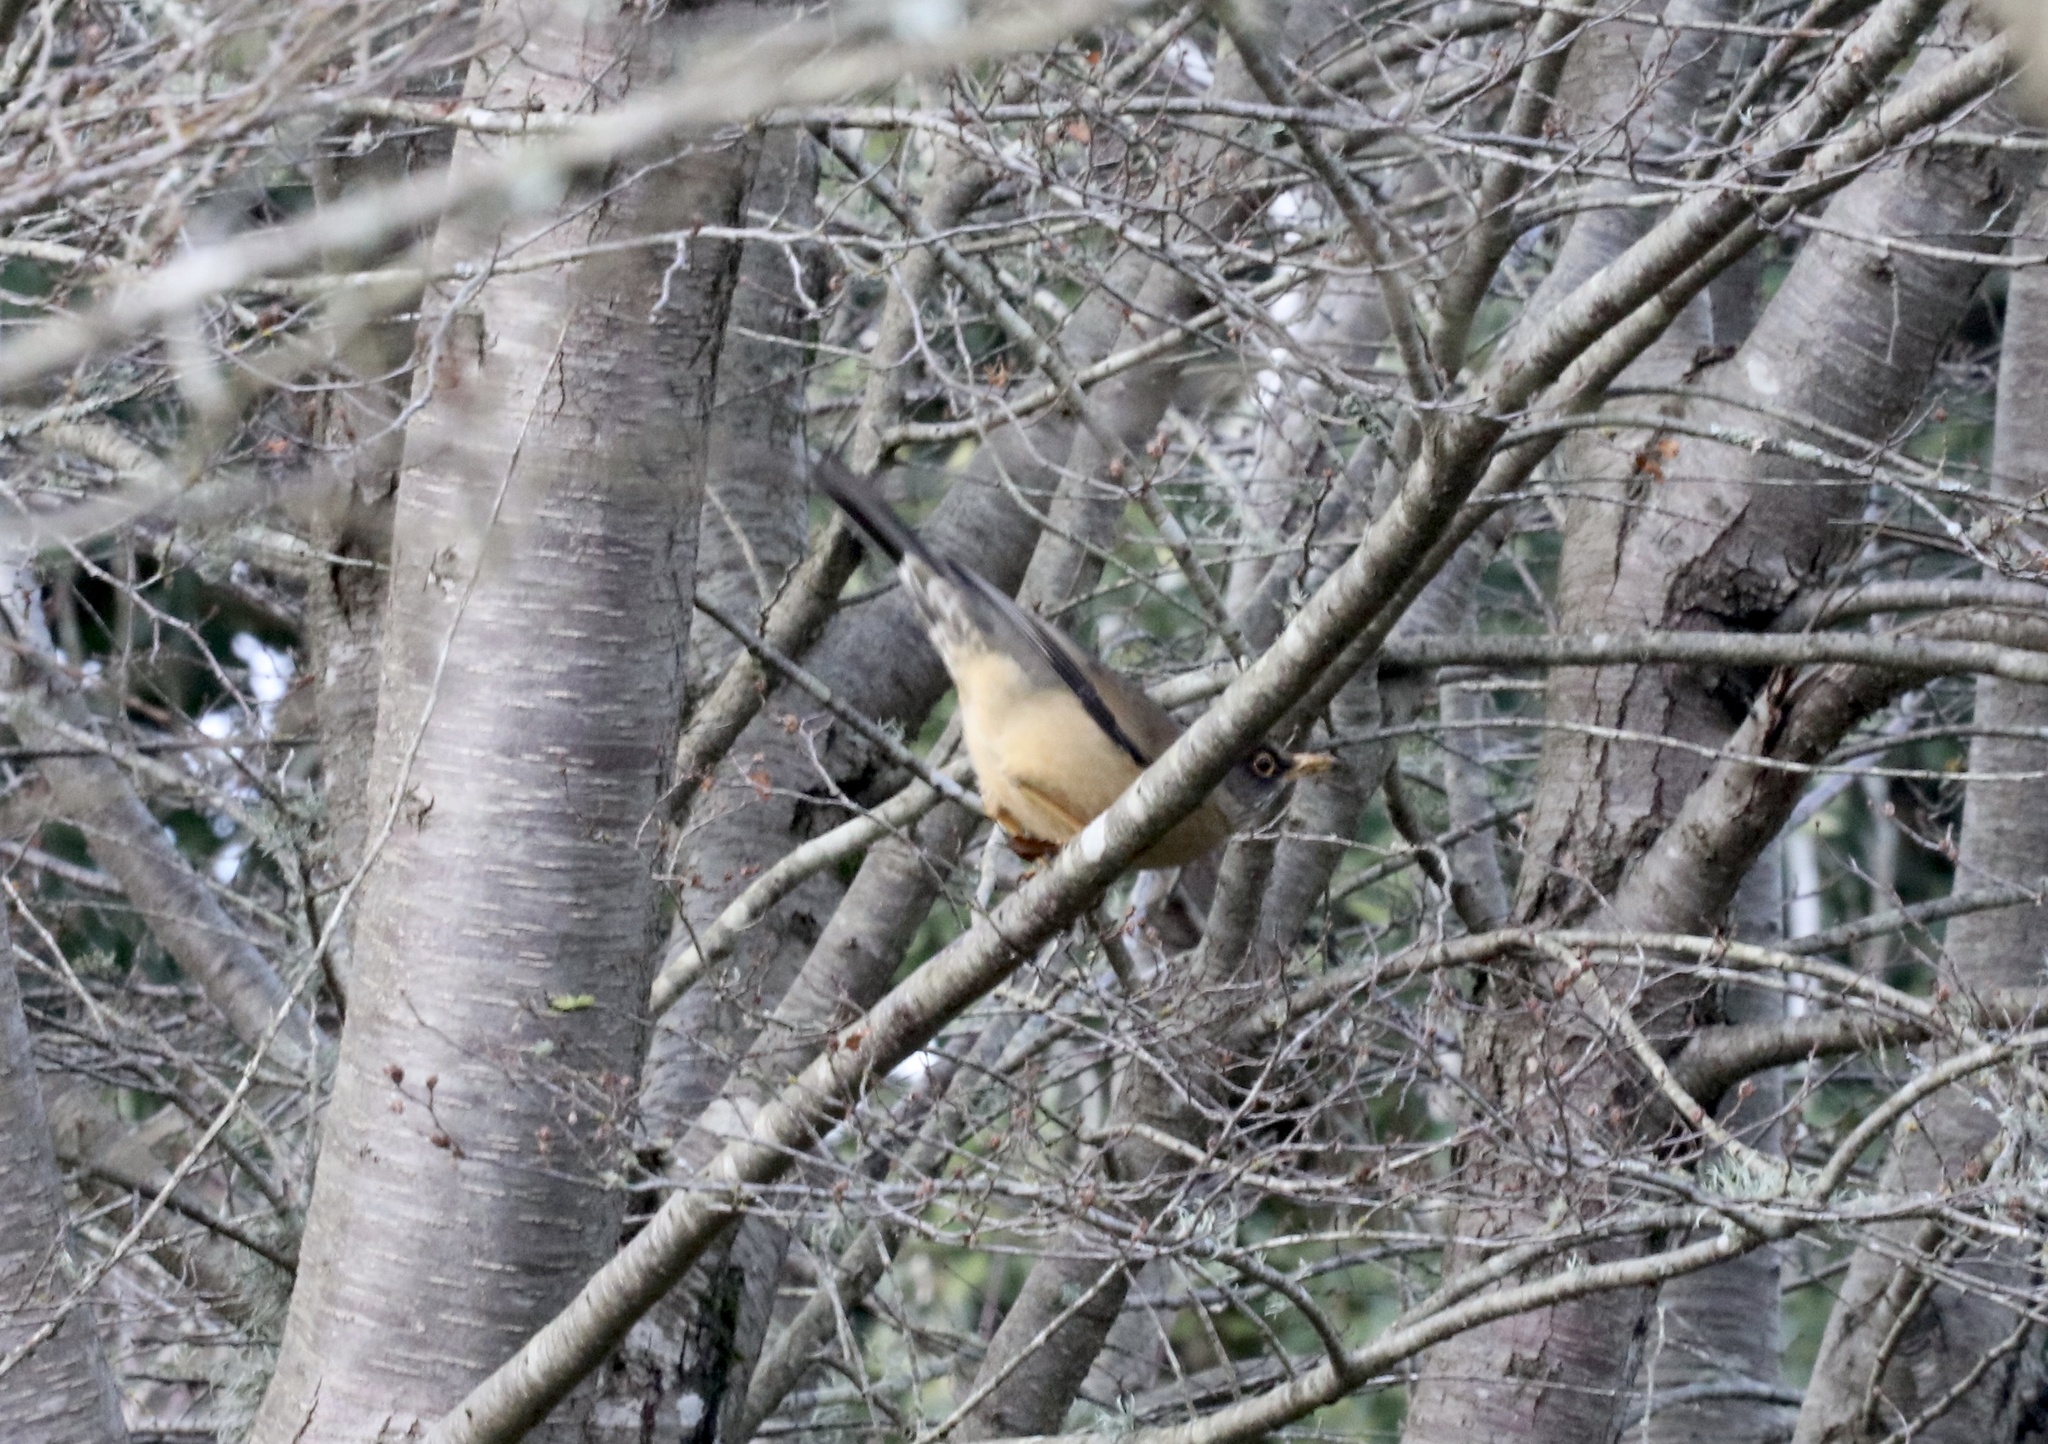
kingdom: Animalia
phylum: Chordata
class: Aves
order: Passeriformes
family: Turdidae
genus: Turdus
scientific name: Turdus falcklandii
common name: Austral thrush
